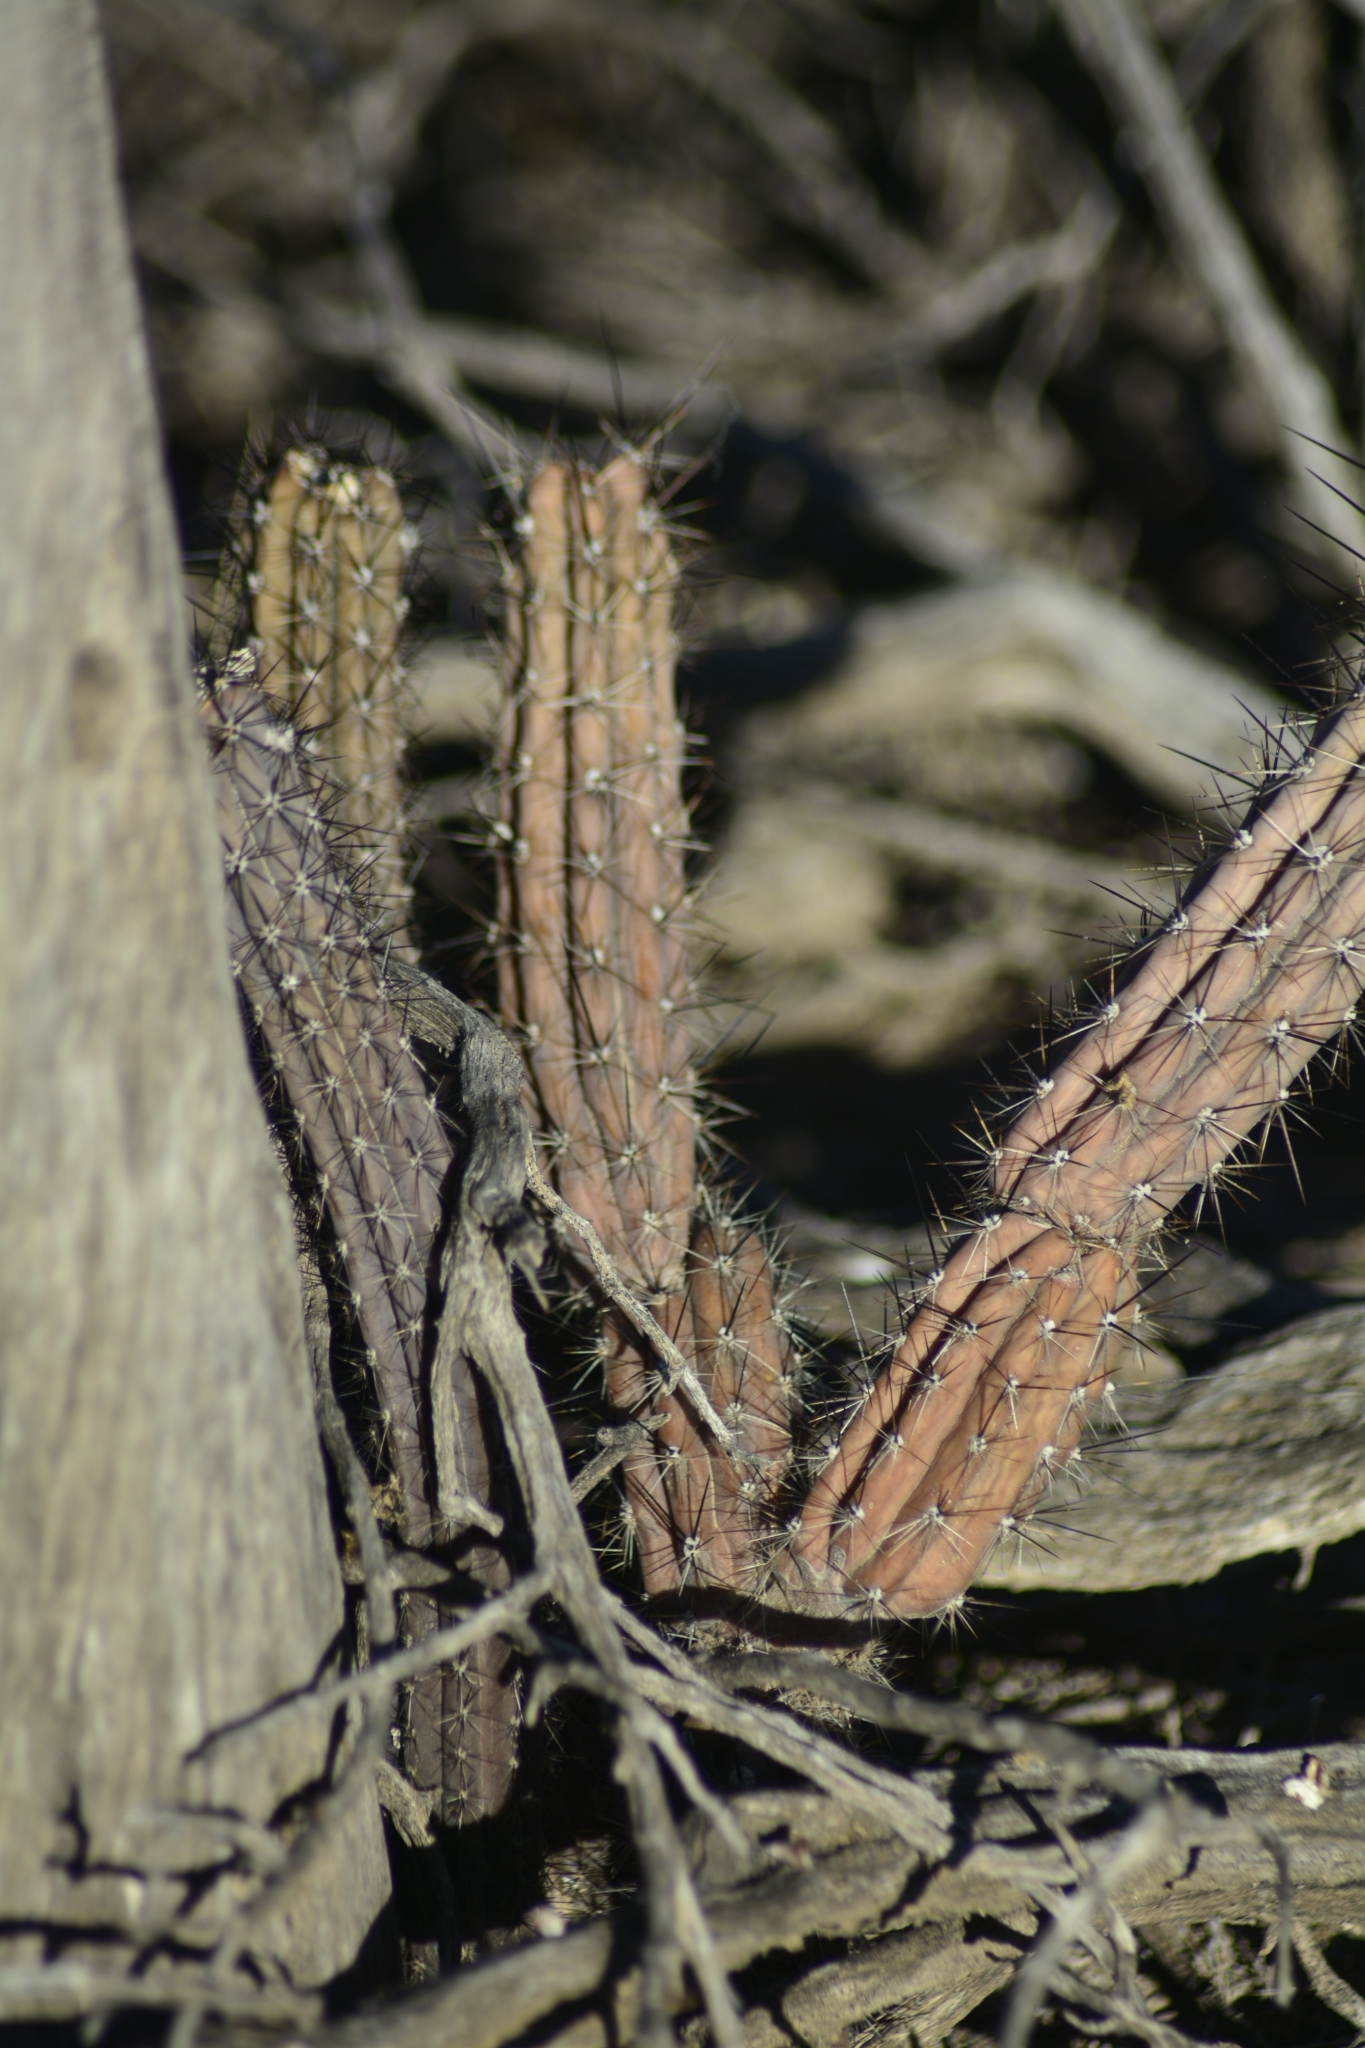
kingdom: Plantae
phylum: Tracheophyta
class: Magnoliopsida
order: Caryophyllales
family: Cactaceae
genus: Cereus
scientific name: Cereus aethiops
